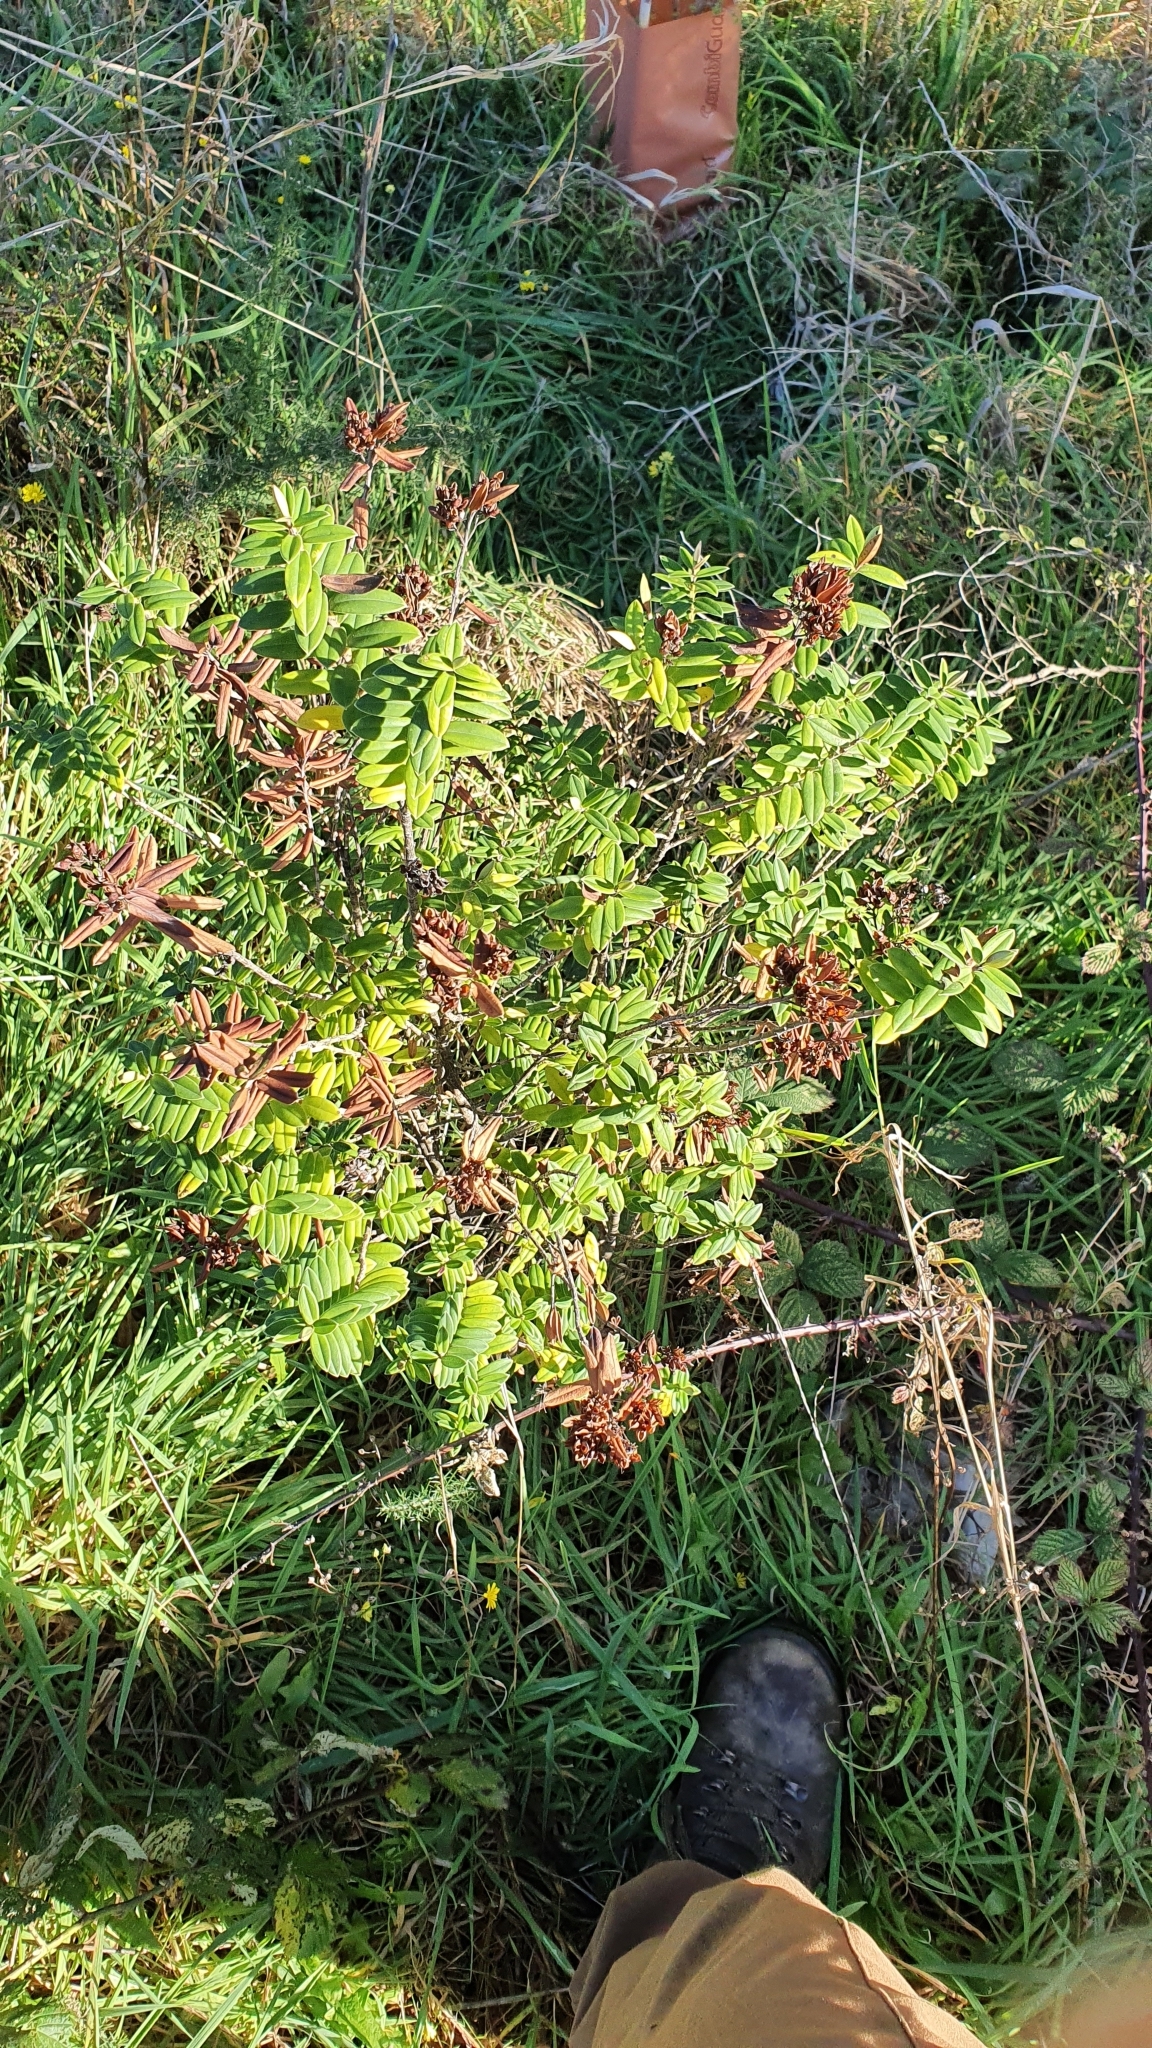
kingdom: Plantae
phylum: Tracheophyta
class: Magnoliopsida
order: Lamiales
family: Plantaginaceae
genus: Veronica
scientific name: Veronica elliptica
